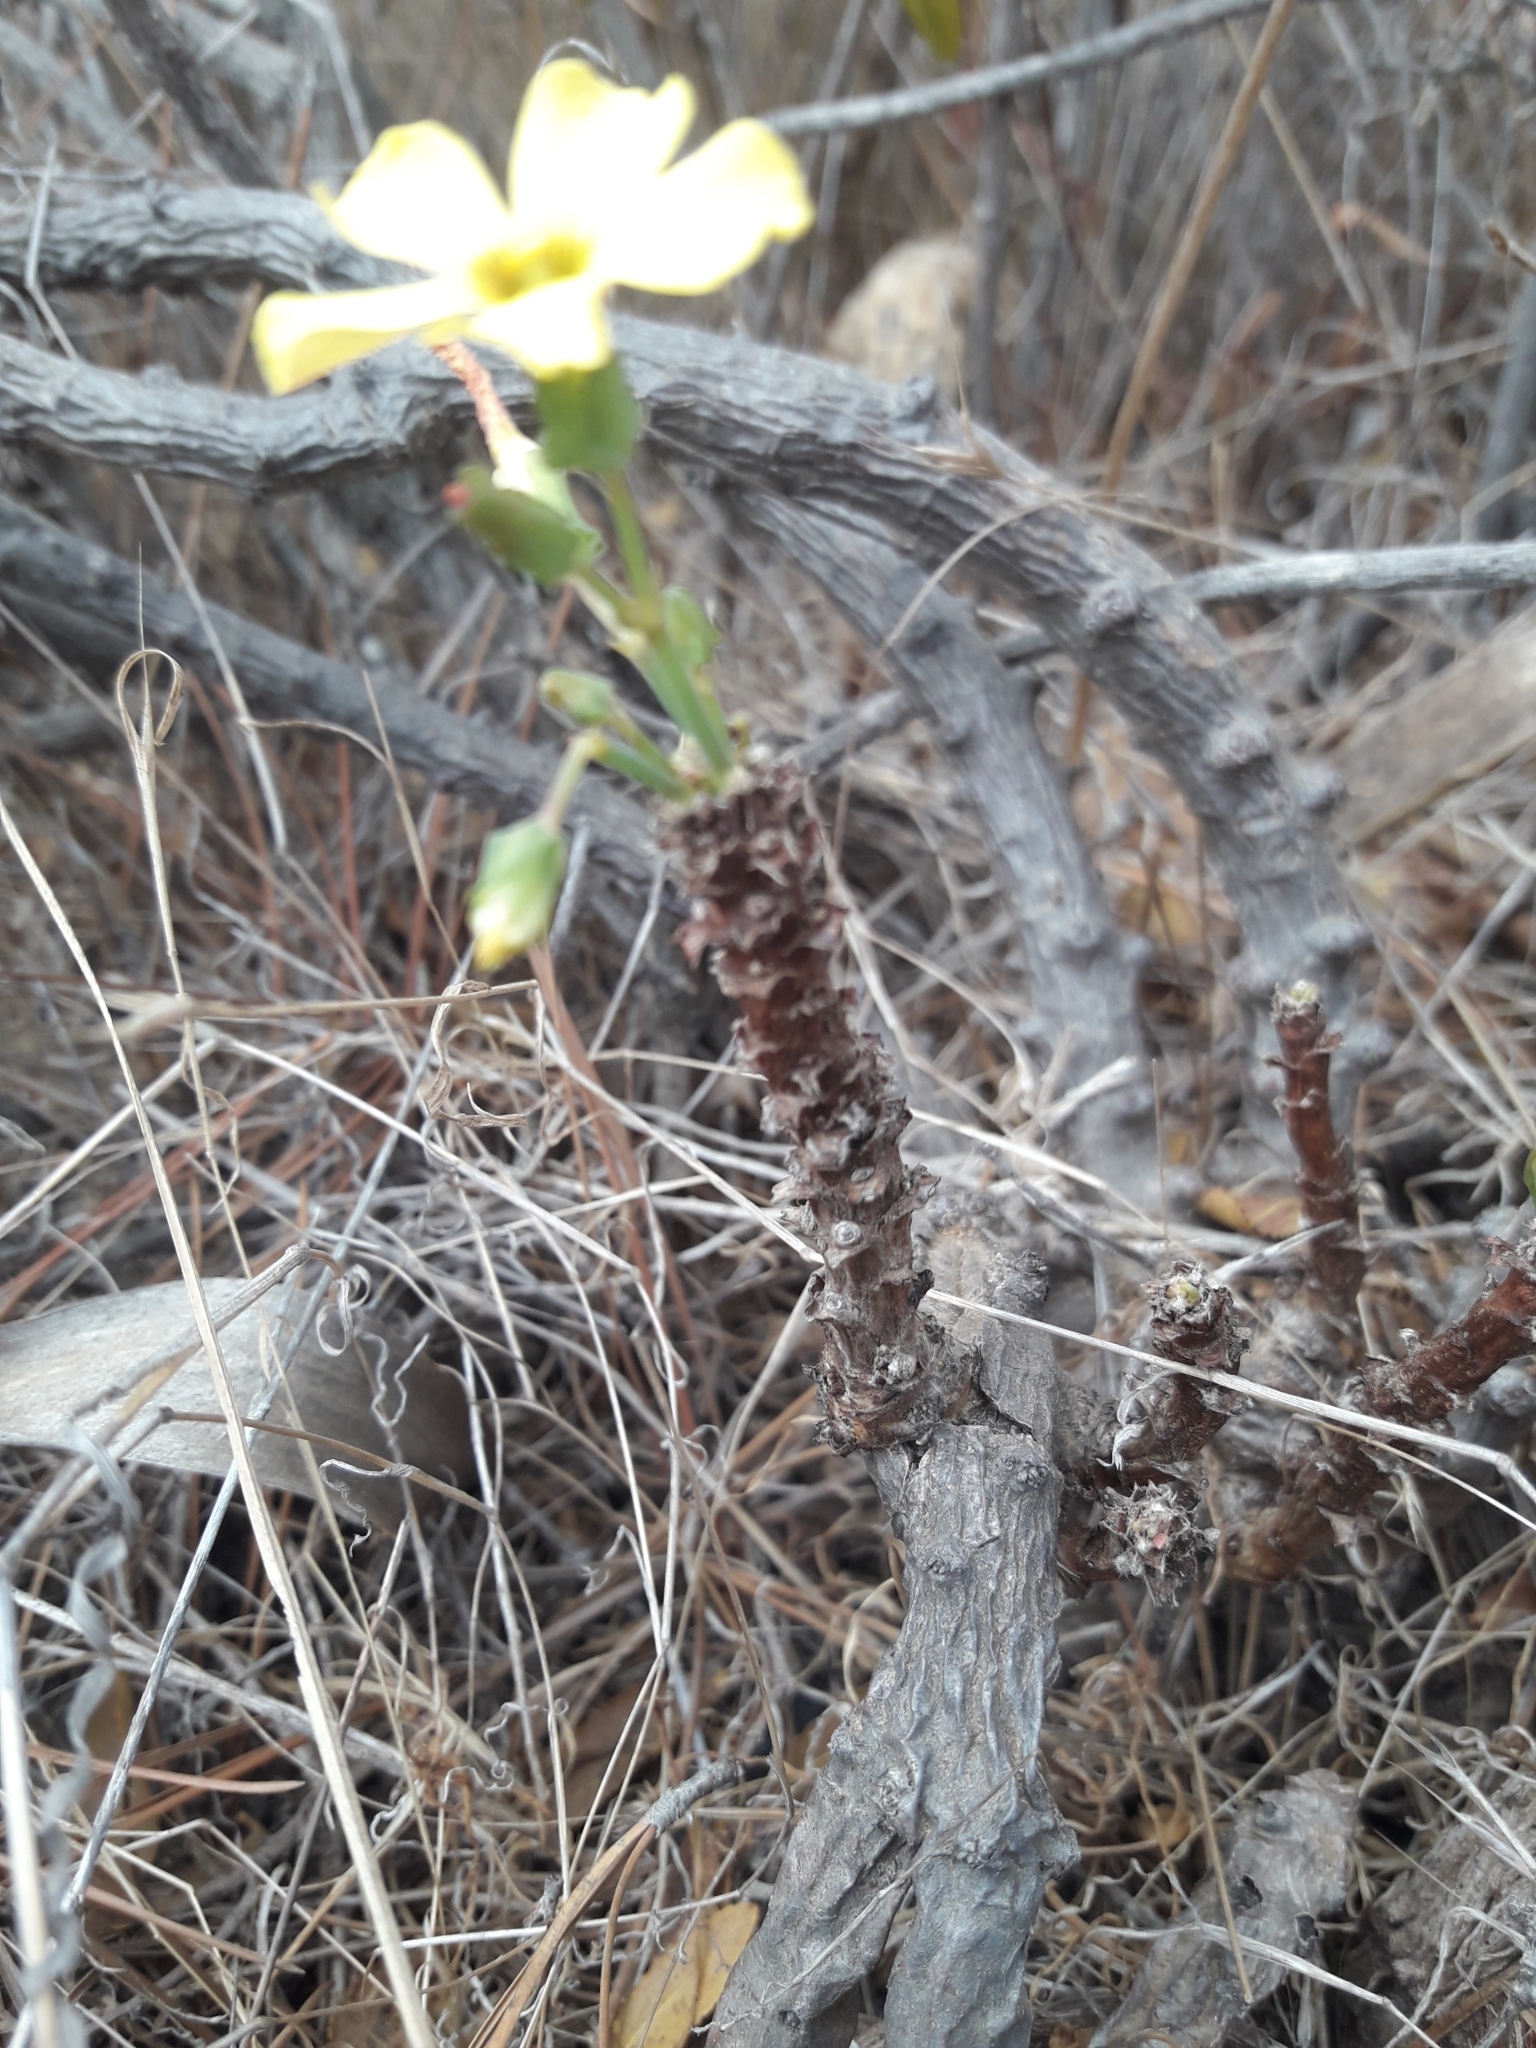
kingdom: Plantae
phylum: Tracheophyta
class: Magnoliopsida
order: Oxalidales
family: Oxalidaceae
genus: Oxalis
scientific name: Oxalis megalorrhiza
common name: Fleshy yellow-sorrel
